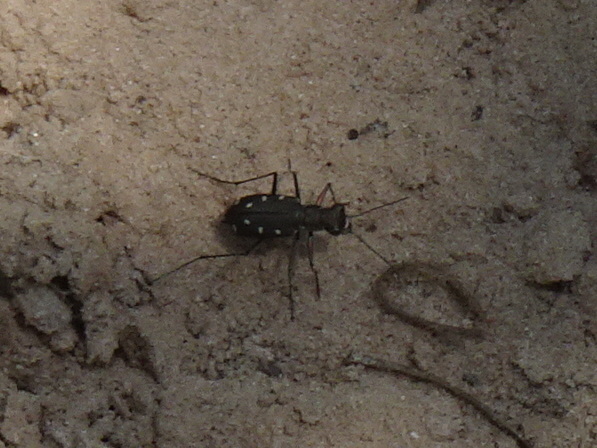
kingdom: Animalia
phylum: Arthropoda
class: Insecta
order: Coleoptera
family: Carabidae
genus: Cicindela
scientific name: Cicindela ocellata
